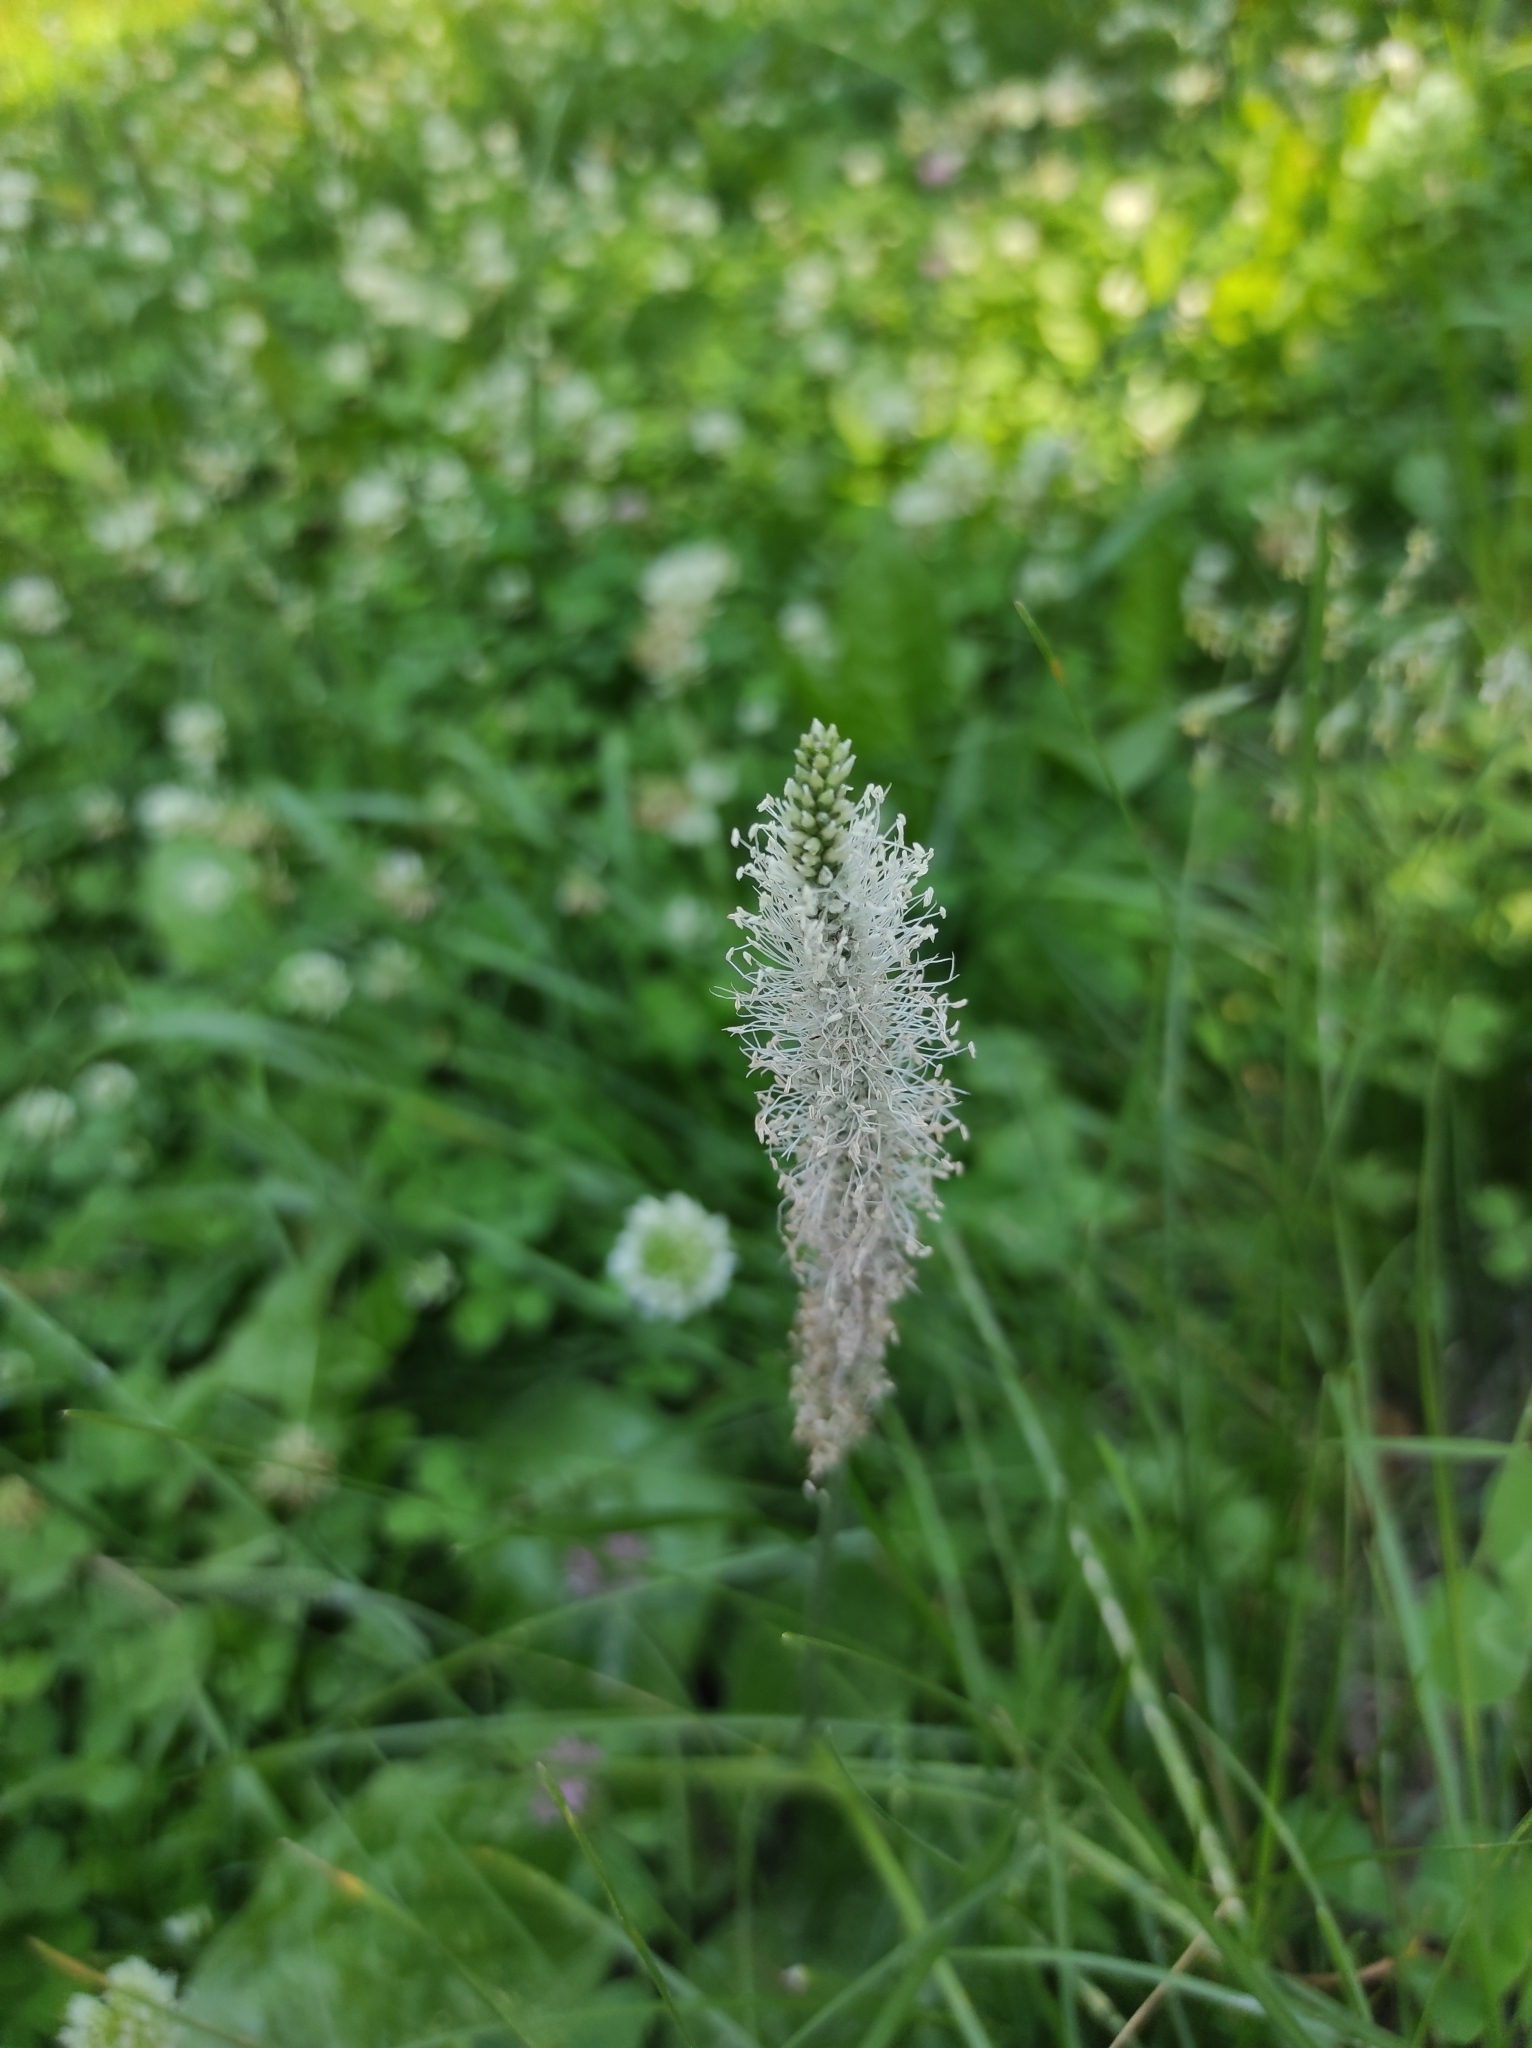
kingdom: Plantae
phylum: Tracheophyta
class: Magnoliopsida
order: Lamiales
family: Plantaginaceae
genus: Plantago
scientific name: Plantago media
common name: Hoary plantain
